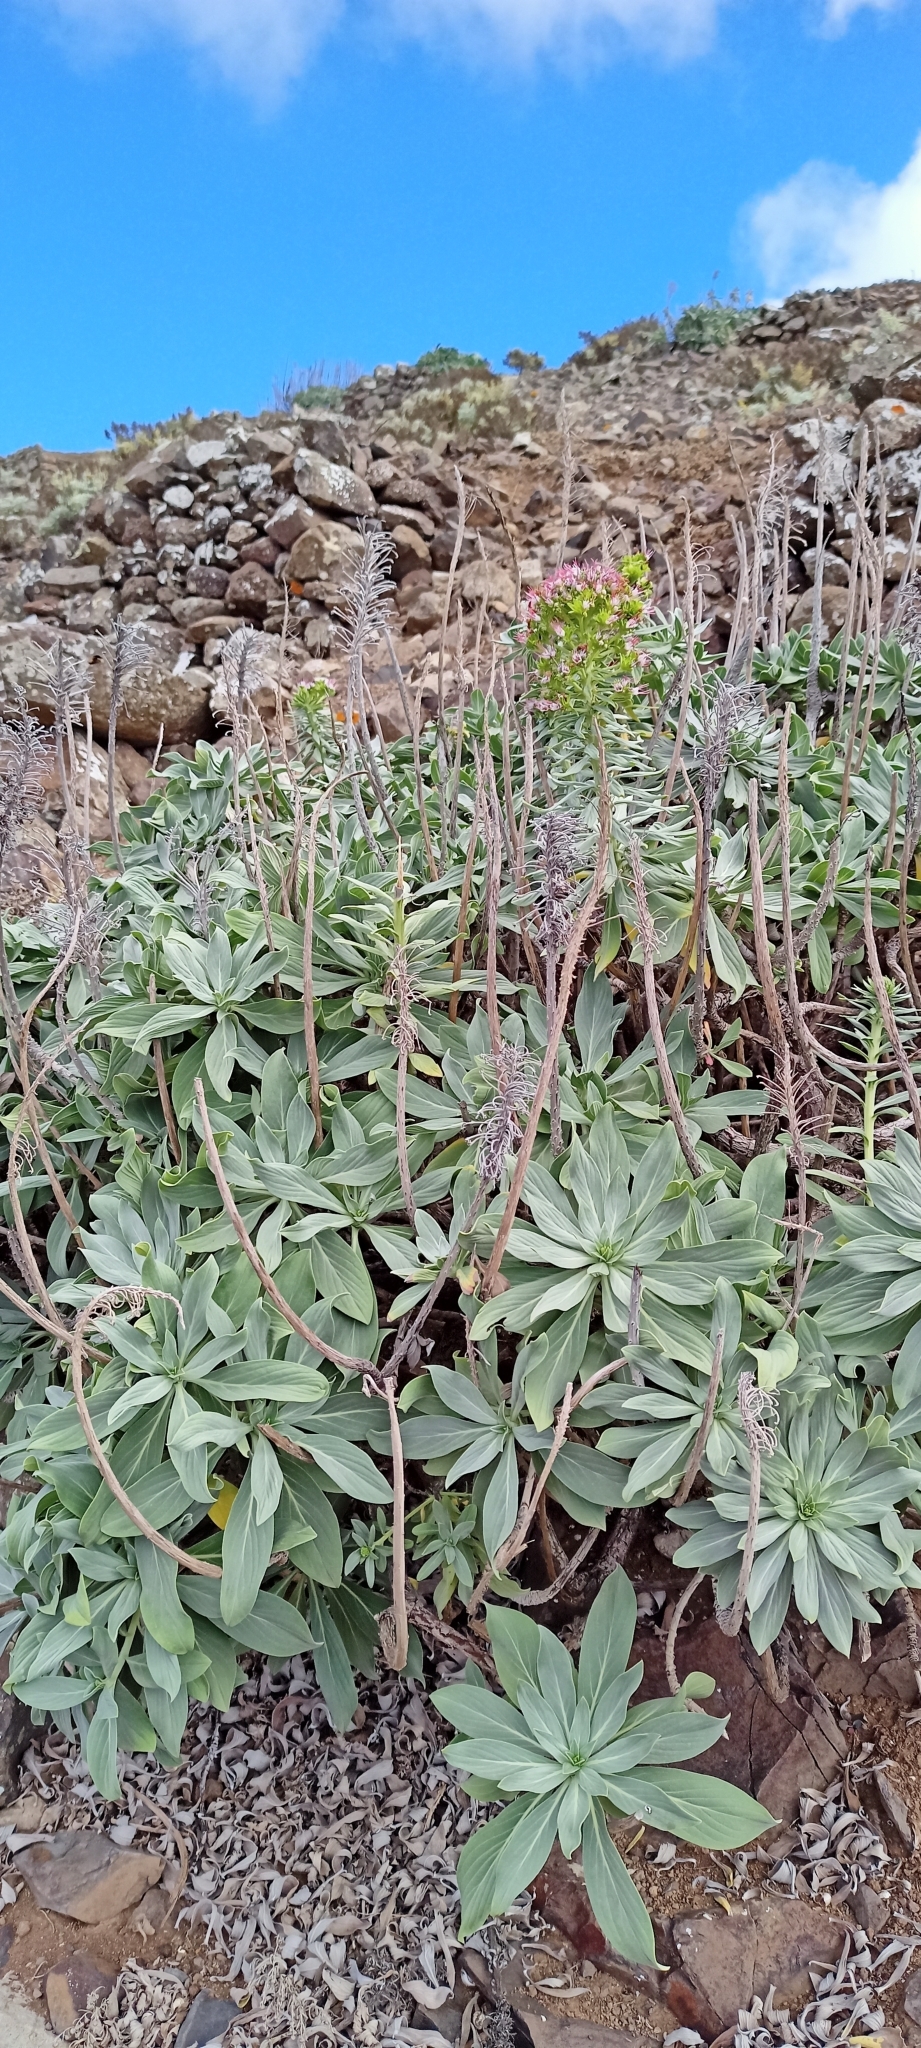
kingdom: Plantae
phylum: Tracheophyta
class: Magnoliopsida
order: Boraginales
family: Boraginaceae
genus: Echium
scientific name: Echium portosanctense
